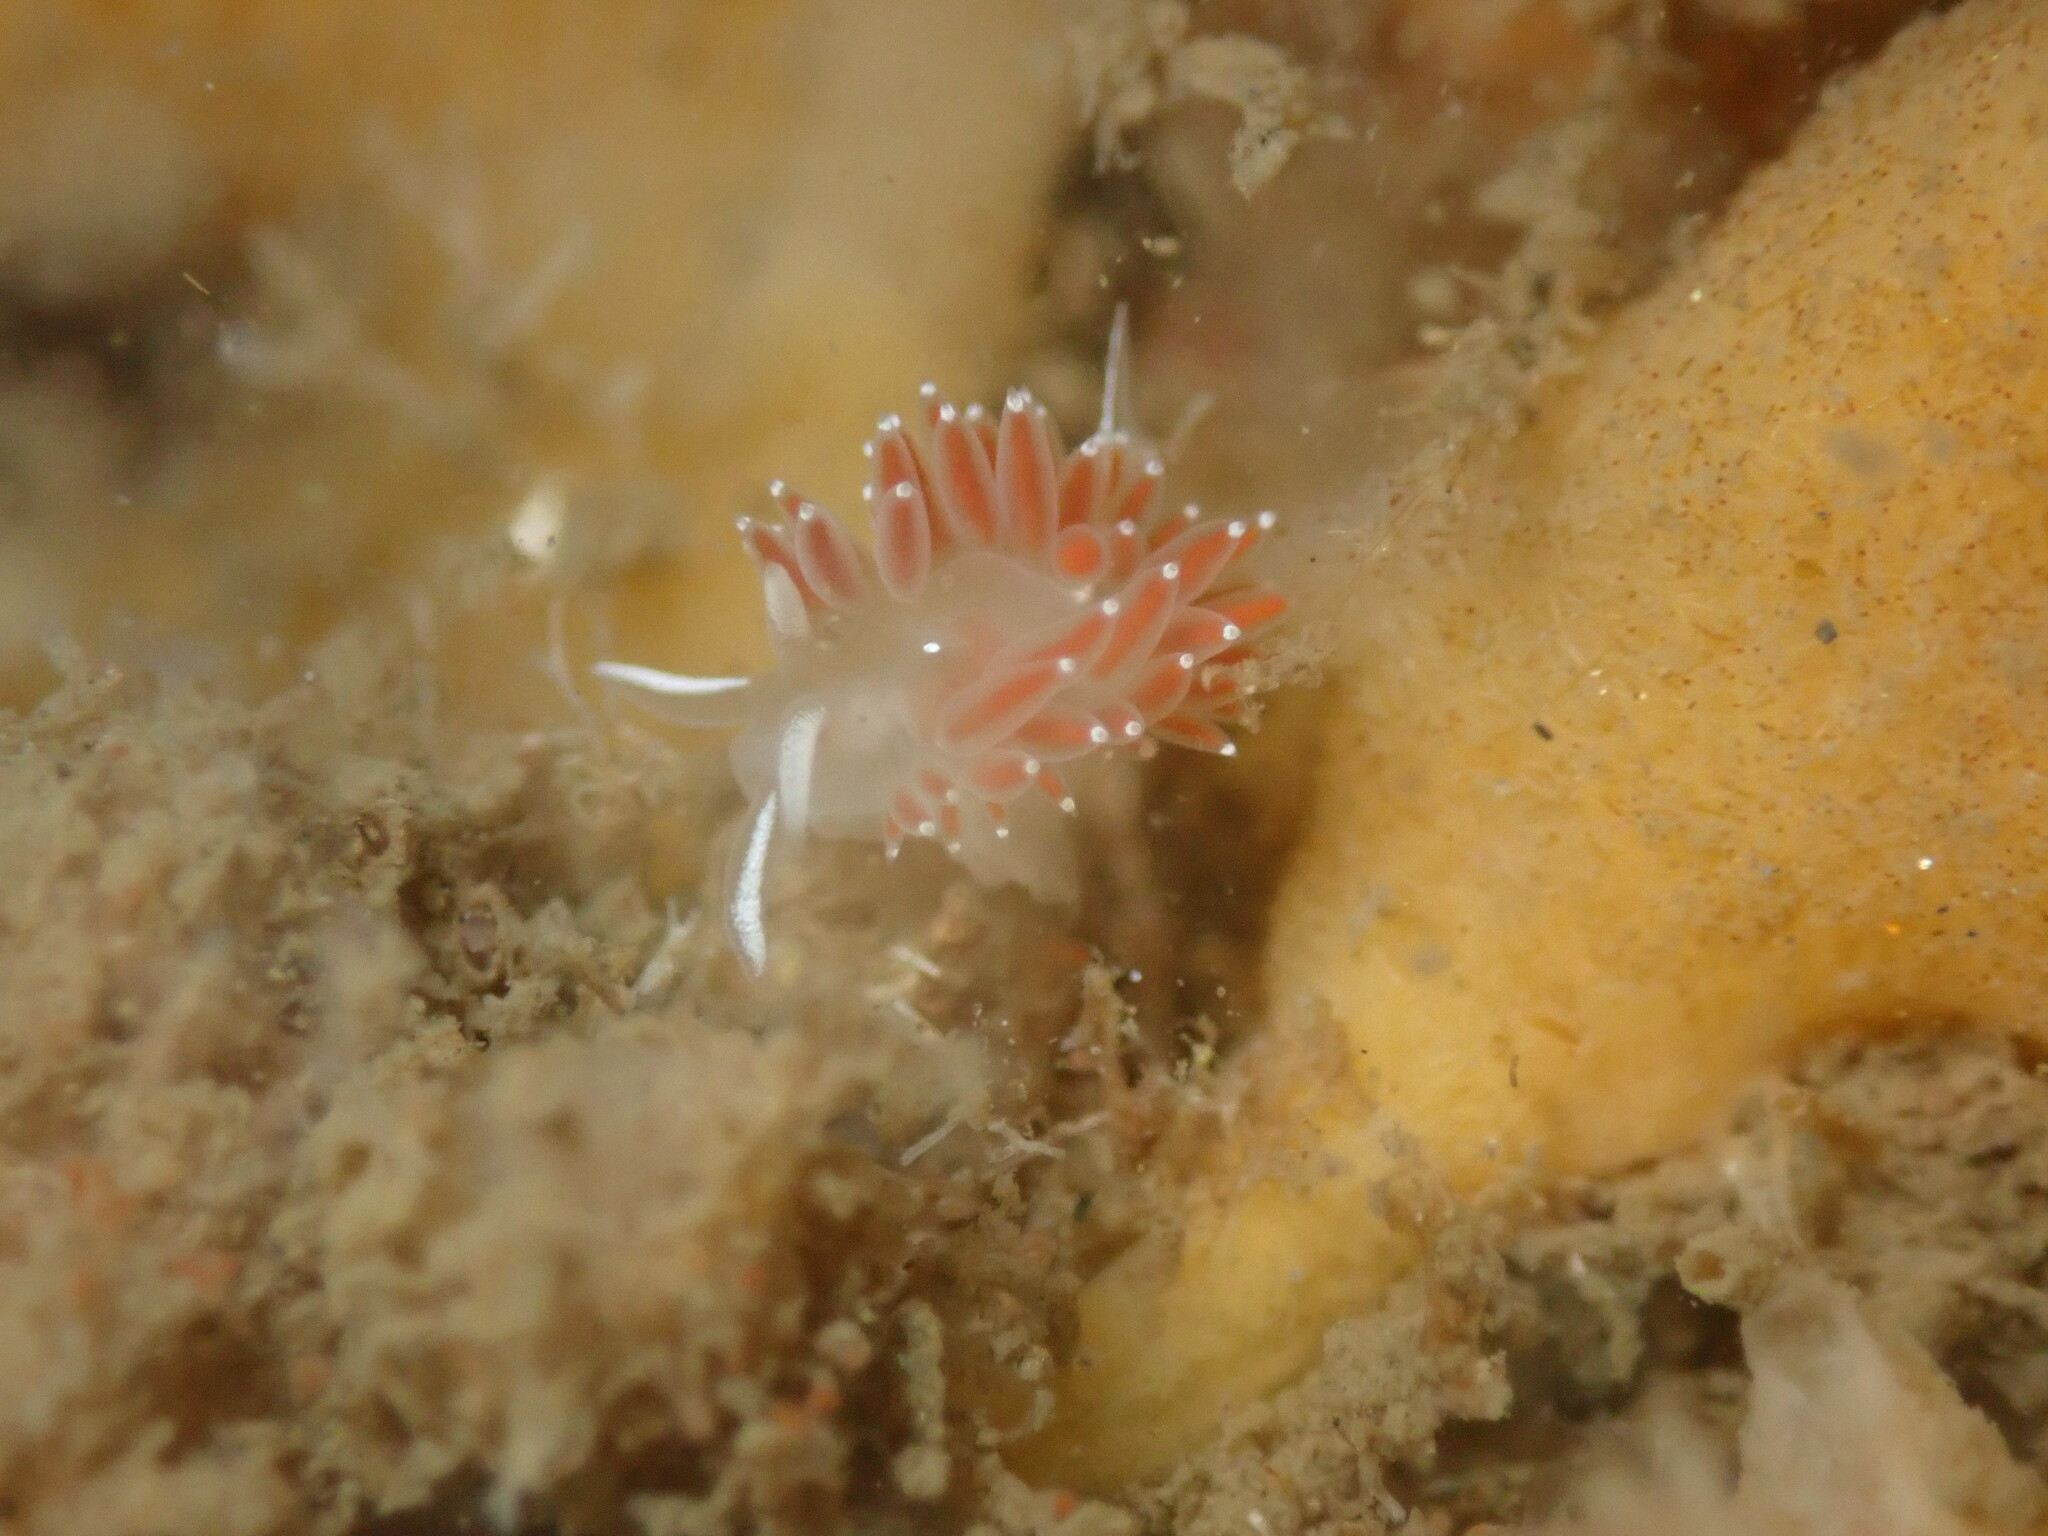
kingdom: Animalia
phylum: Mollusca
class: Gastropoda
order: Nudibranchia
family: Coryphellidae
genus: Coryphella
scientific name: Coryphella verrucosa
